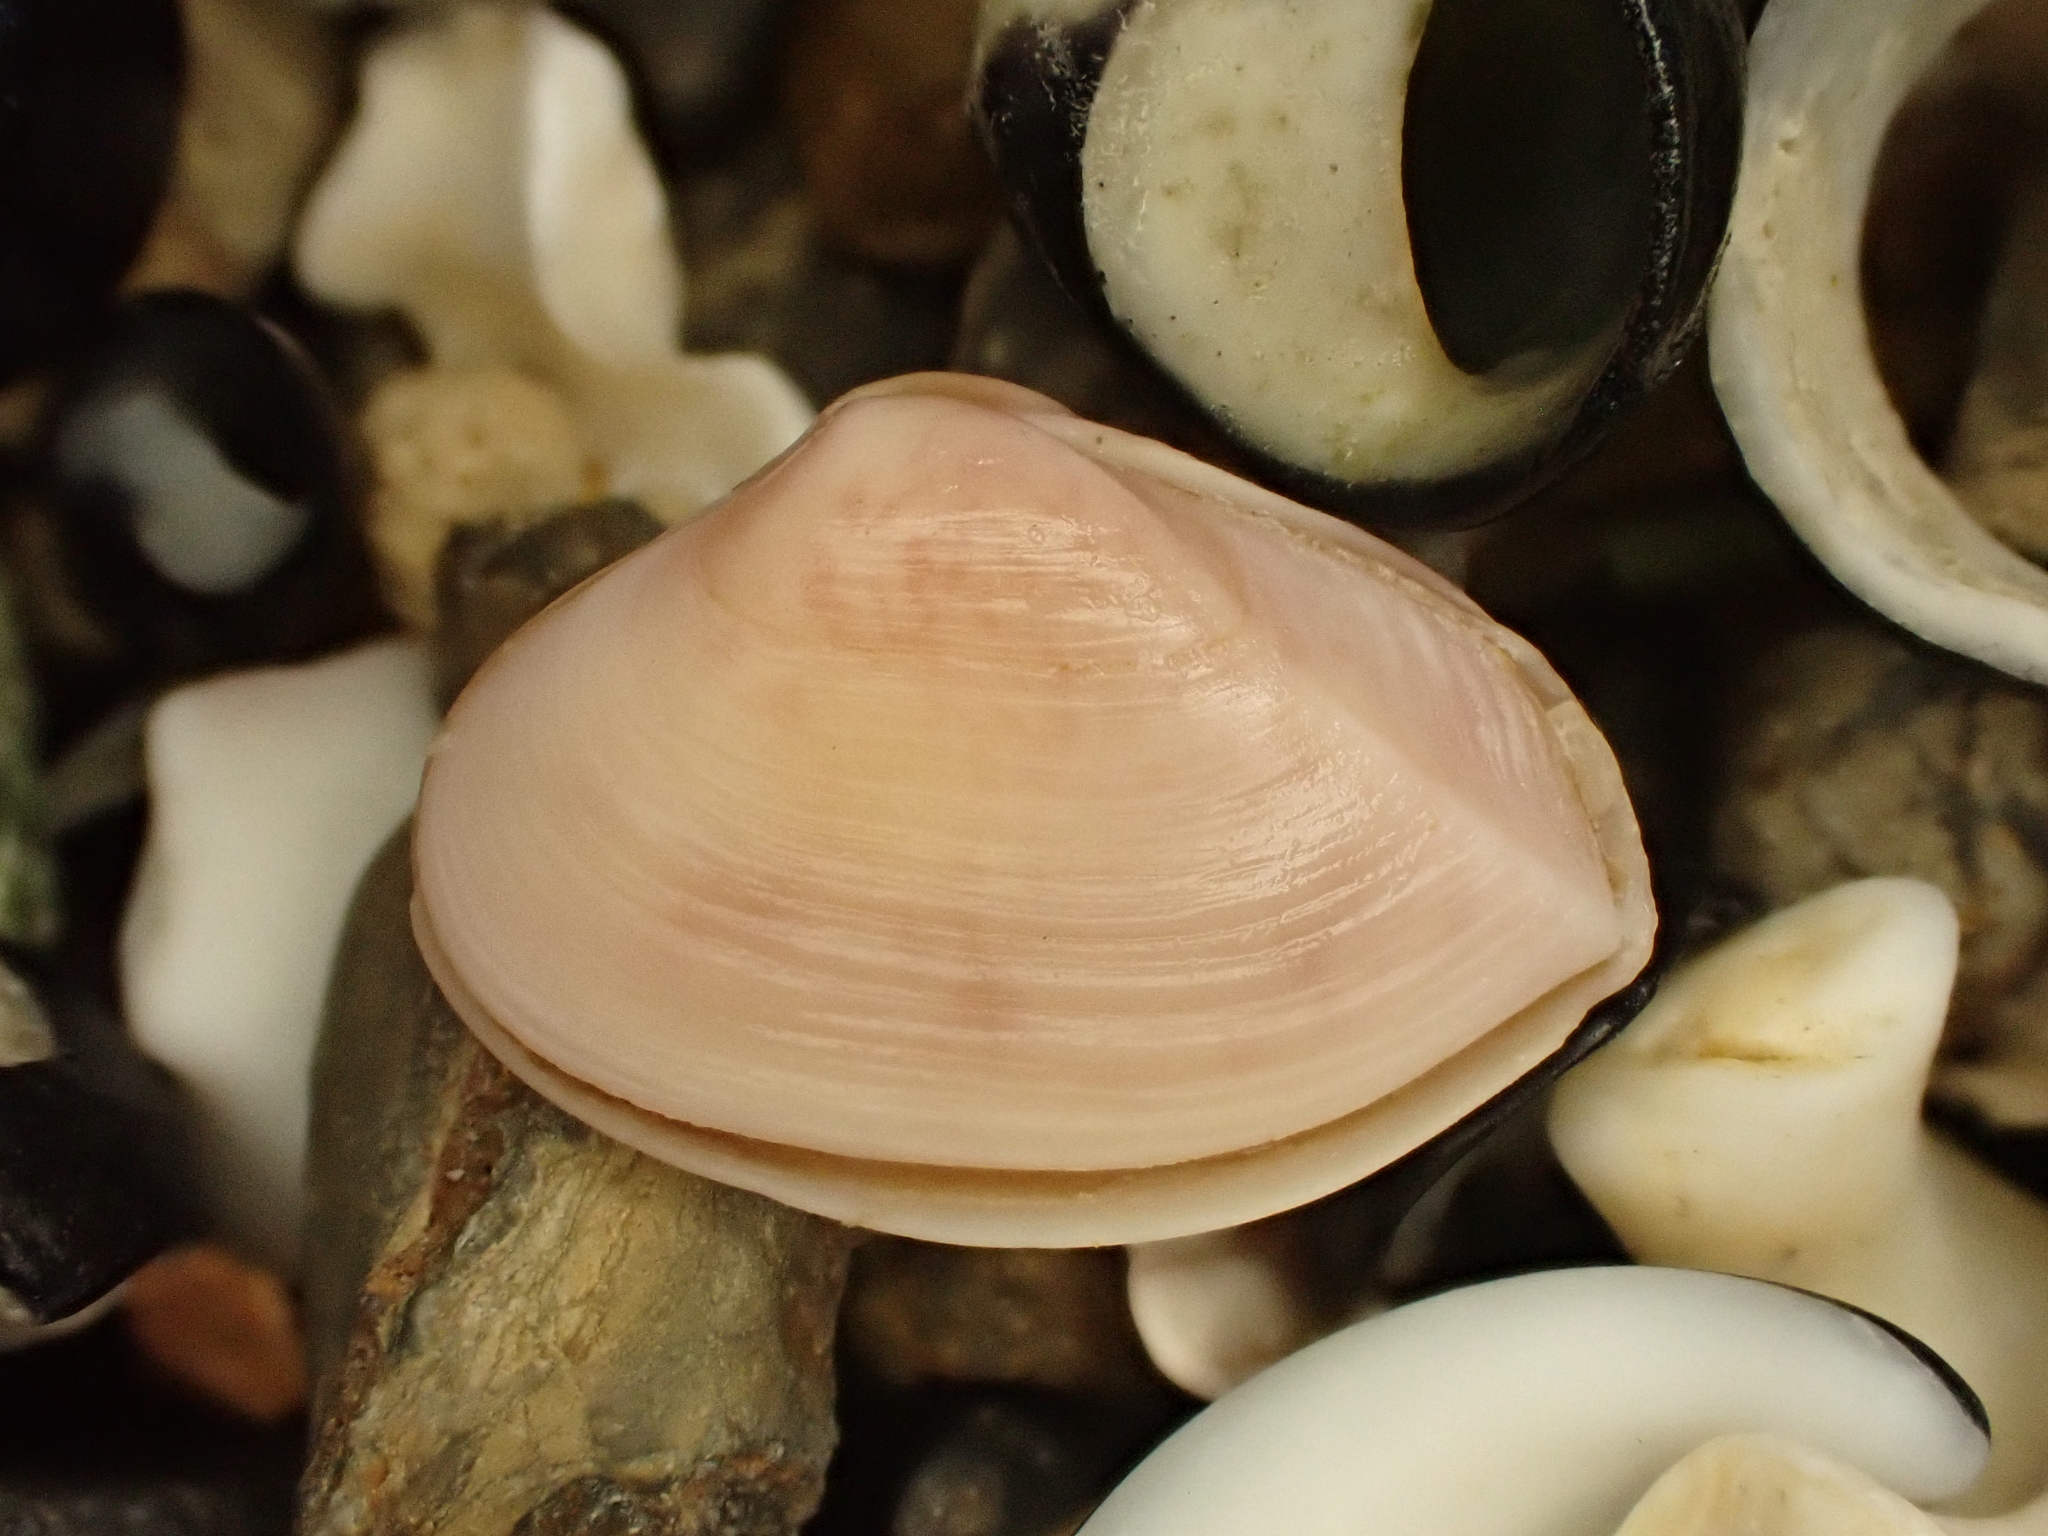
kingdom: Animalia
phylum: Mollusca
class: Bivalvia
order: Myida
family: Corbulidae
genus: Corbula
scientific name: Corbula zelandica
